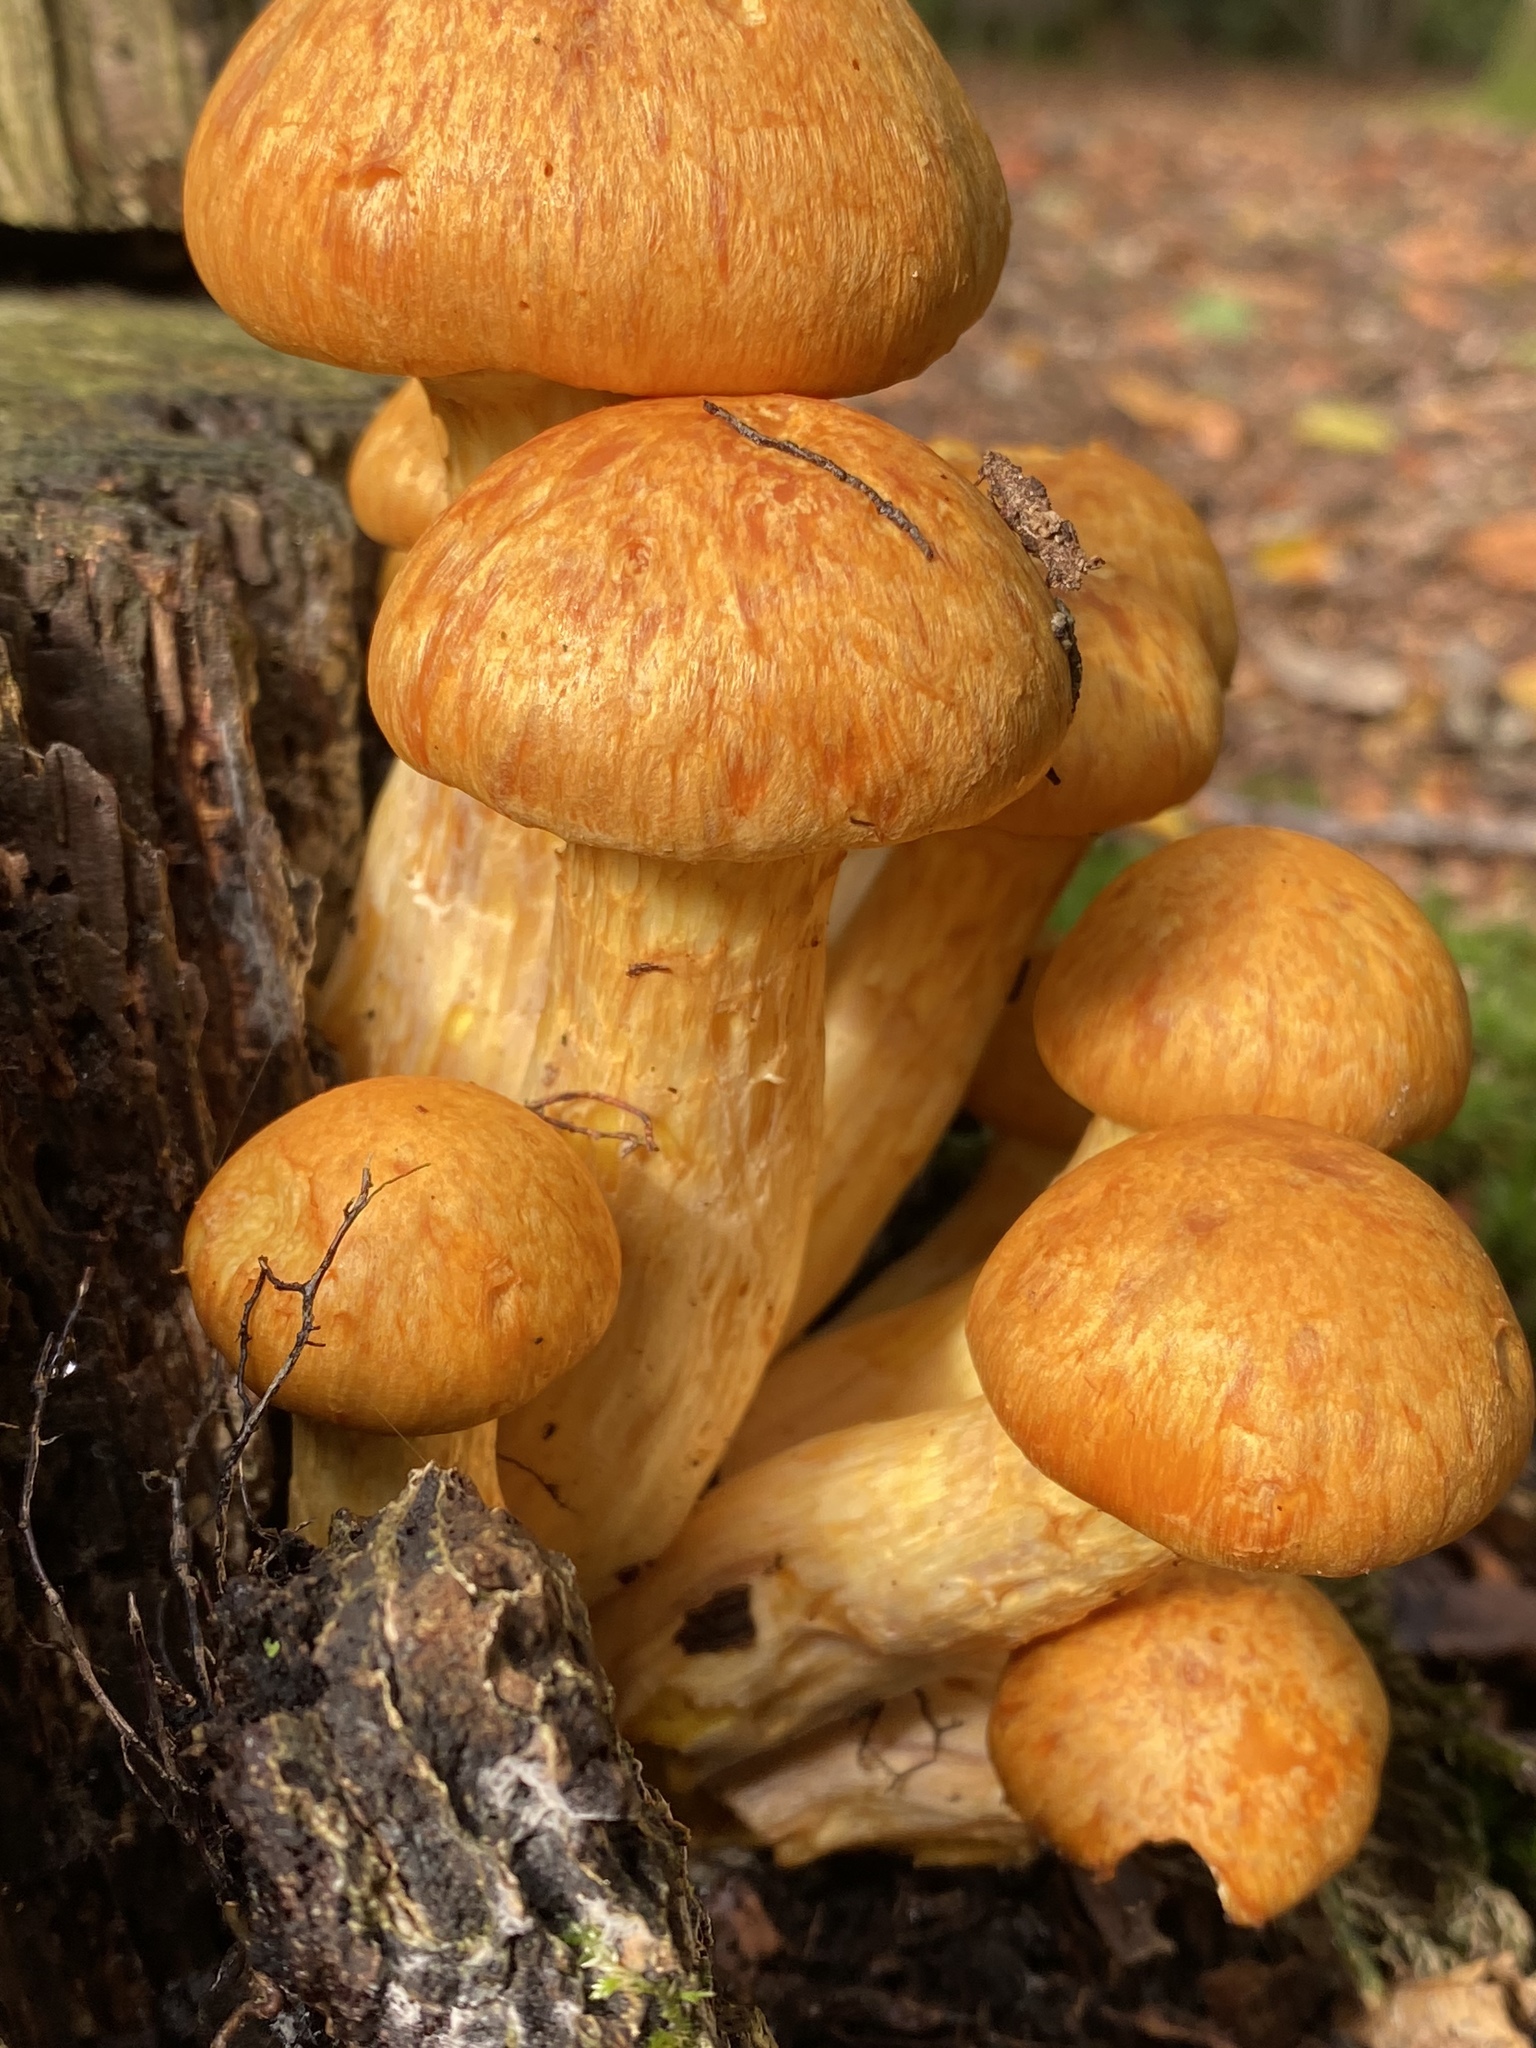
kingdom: Fungi
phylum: Basidiomycota
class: Agaricomycetes
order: Agaricales
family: Hymenogastraceae
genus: Gymnopilus
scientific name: Gymnopilus junonius
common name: Spectacular rustgill
